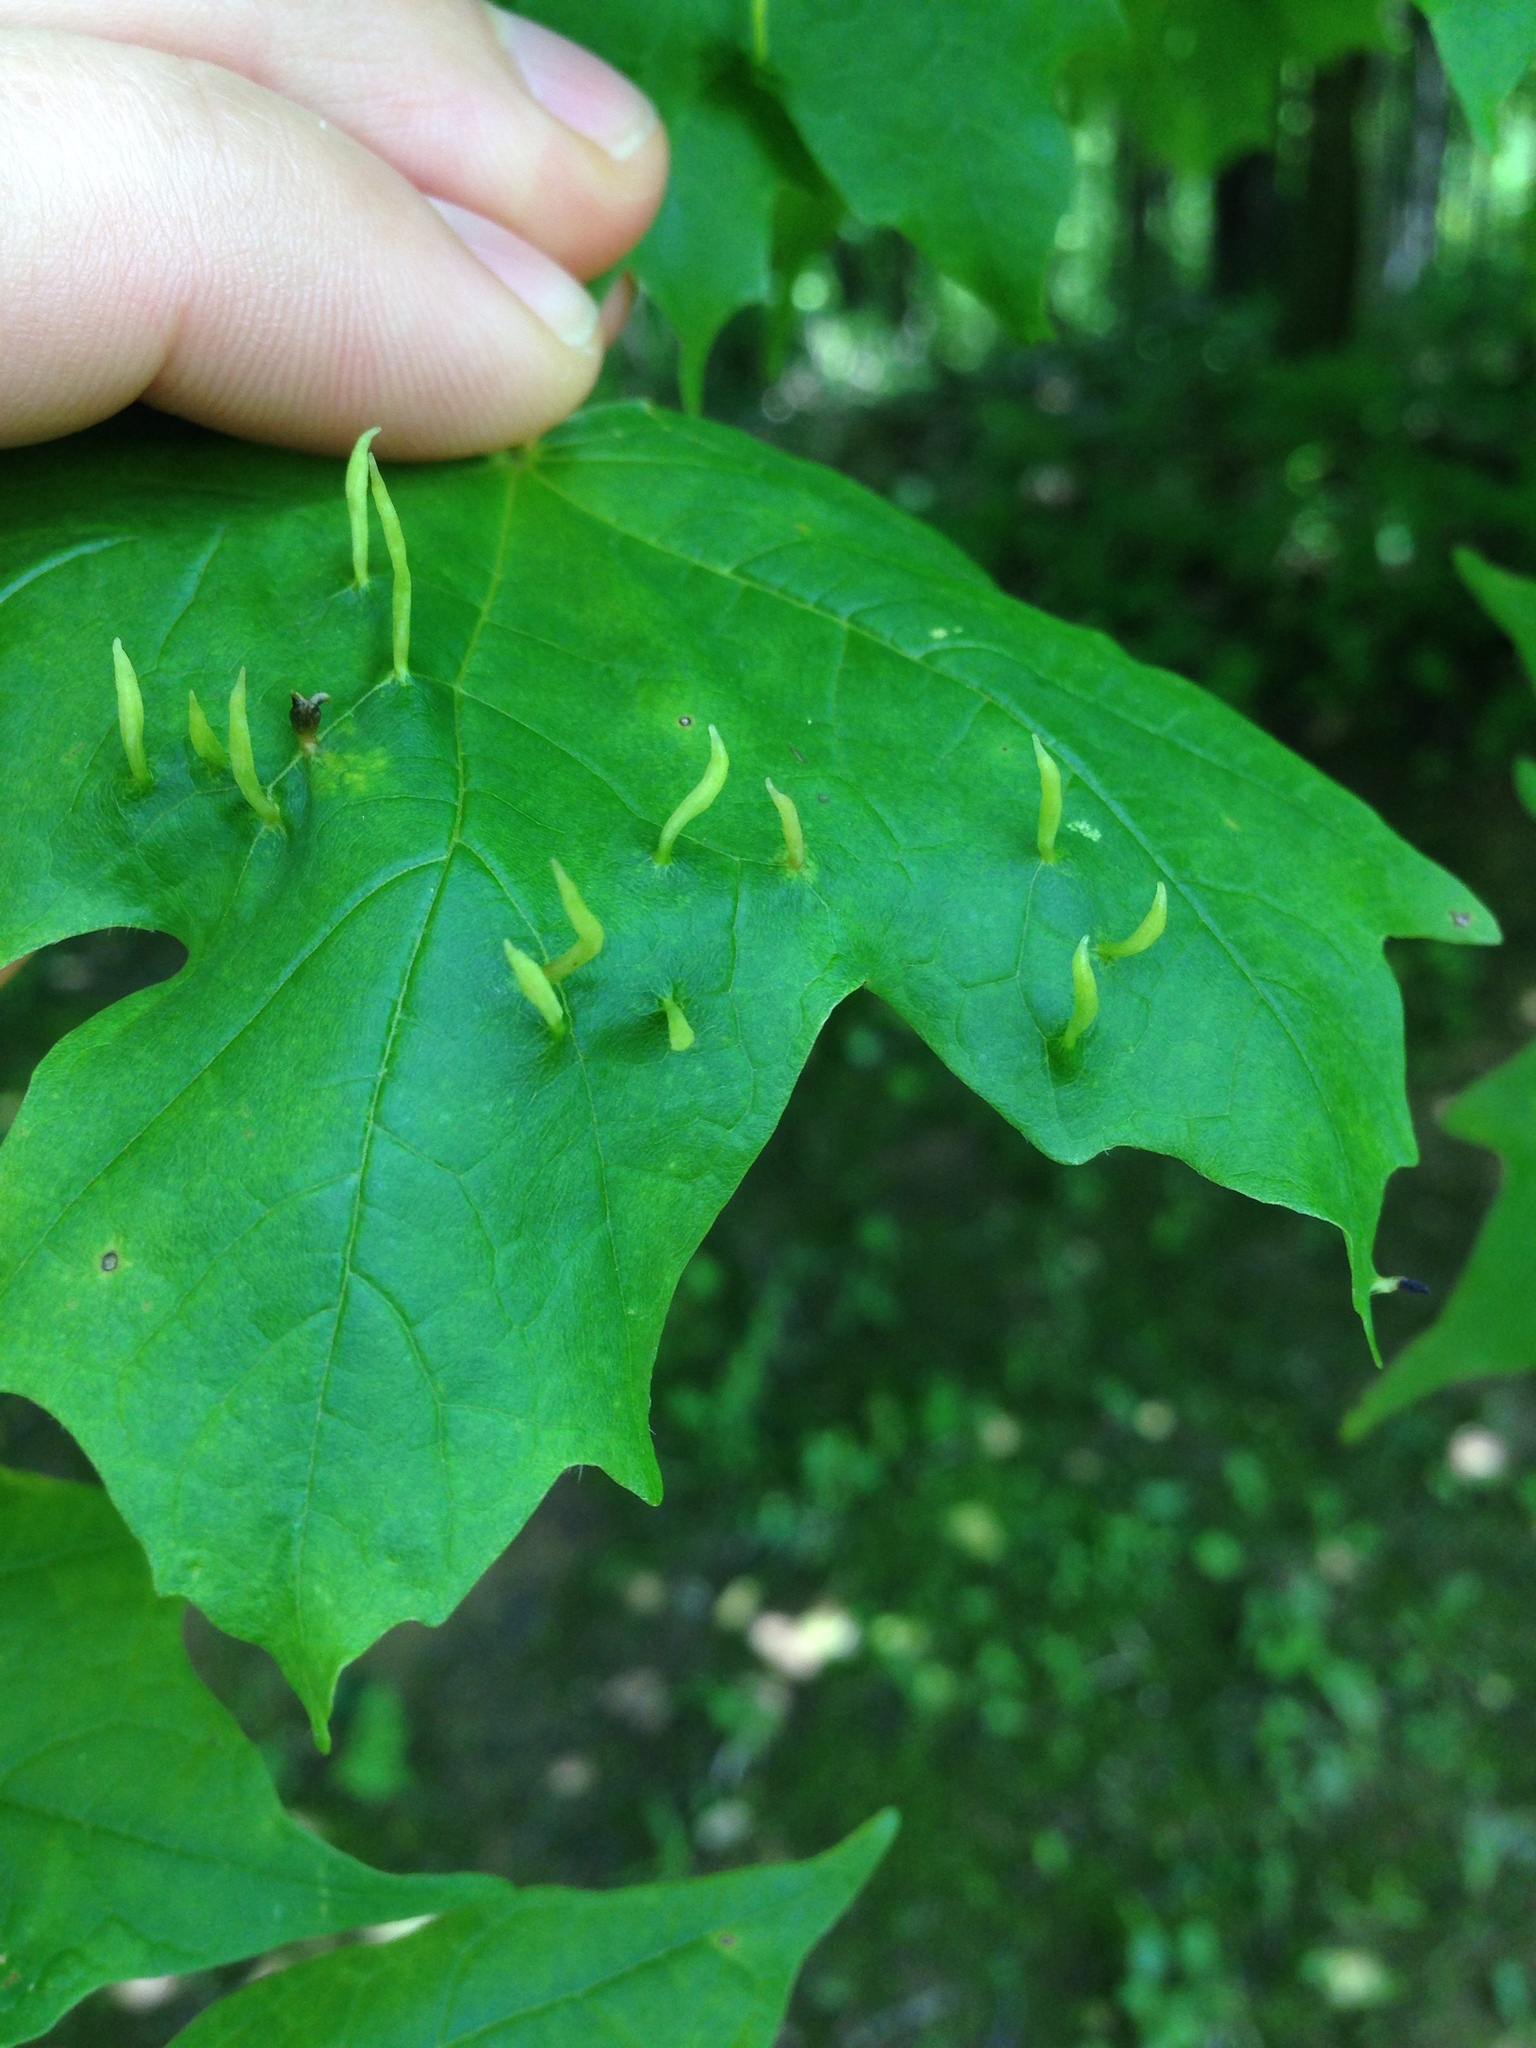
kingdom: Animalia
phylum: Arthropoda
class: Arachnida
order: Trombidiformes
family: Eriophyidae
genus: Vasates
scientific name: Vasates aceriscrumena
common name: Maple spindle gall mite
